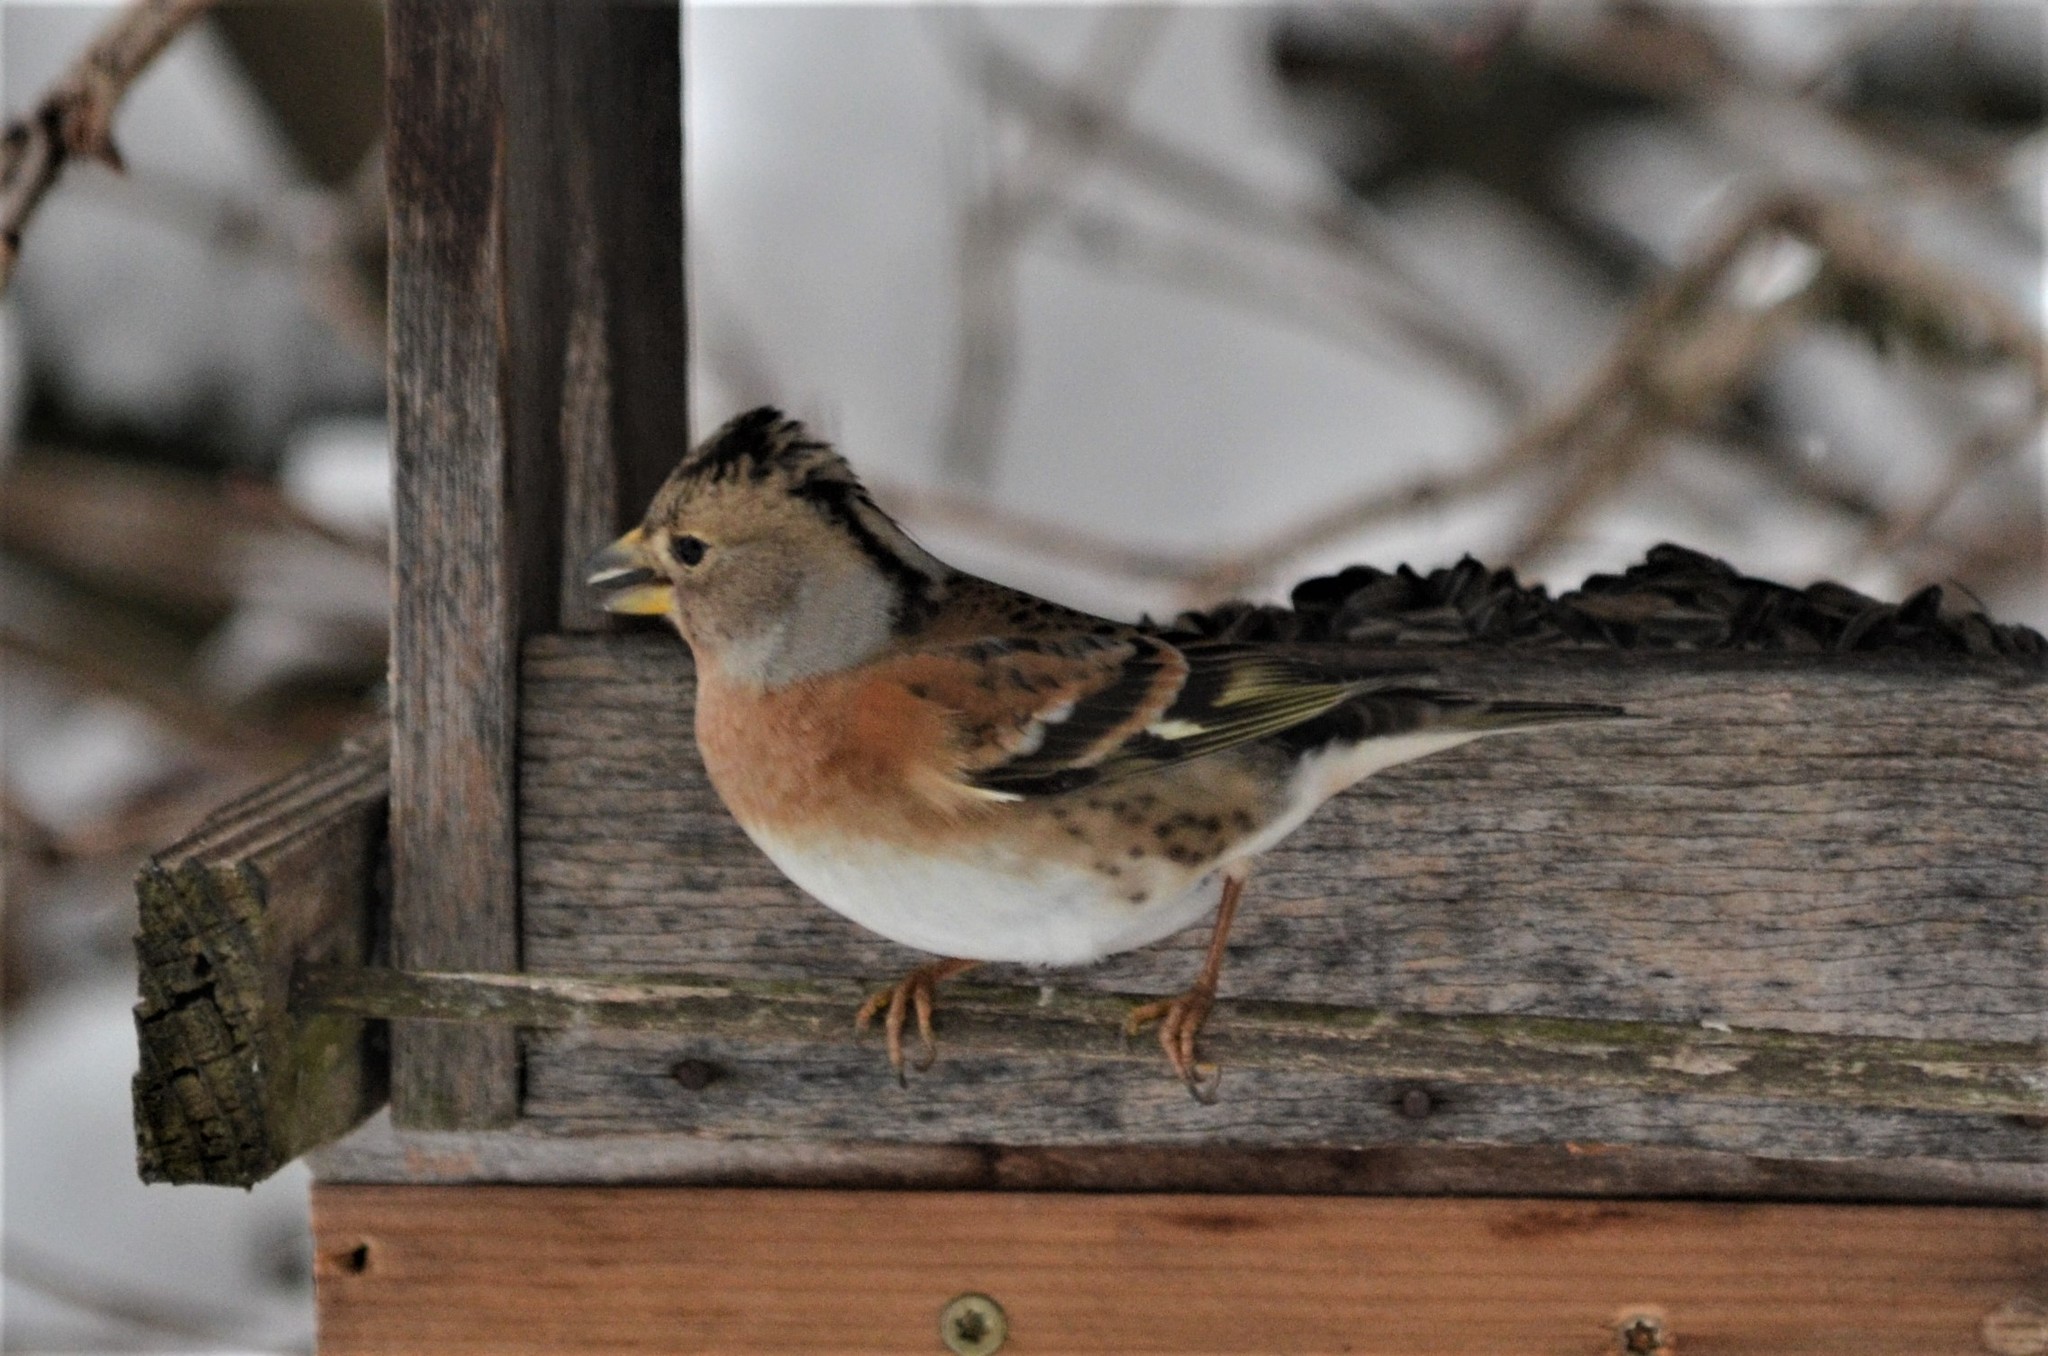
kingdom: Animalia
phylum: Chordata
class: Aves
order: Passeriformes
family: Fringillidae
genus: Fringilla
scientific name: Fringilla montifringilla
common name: Brambling
